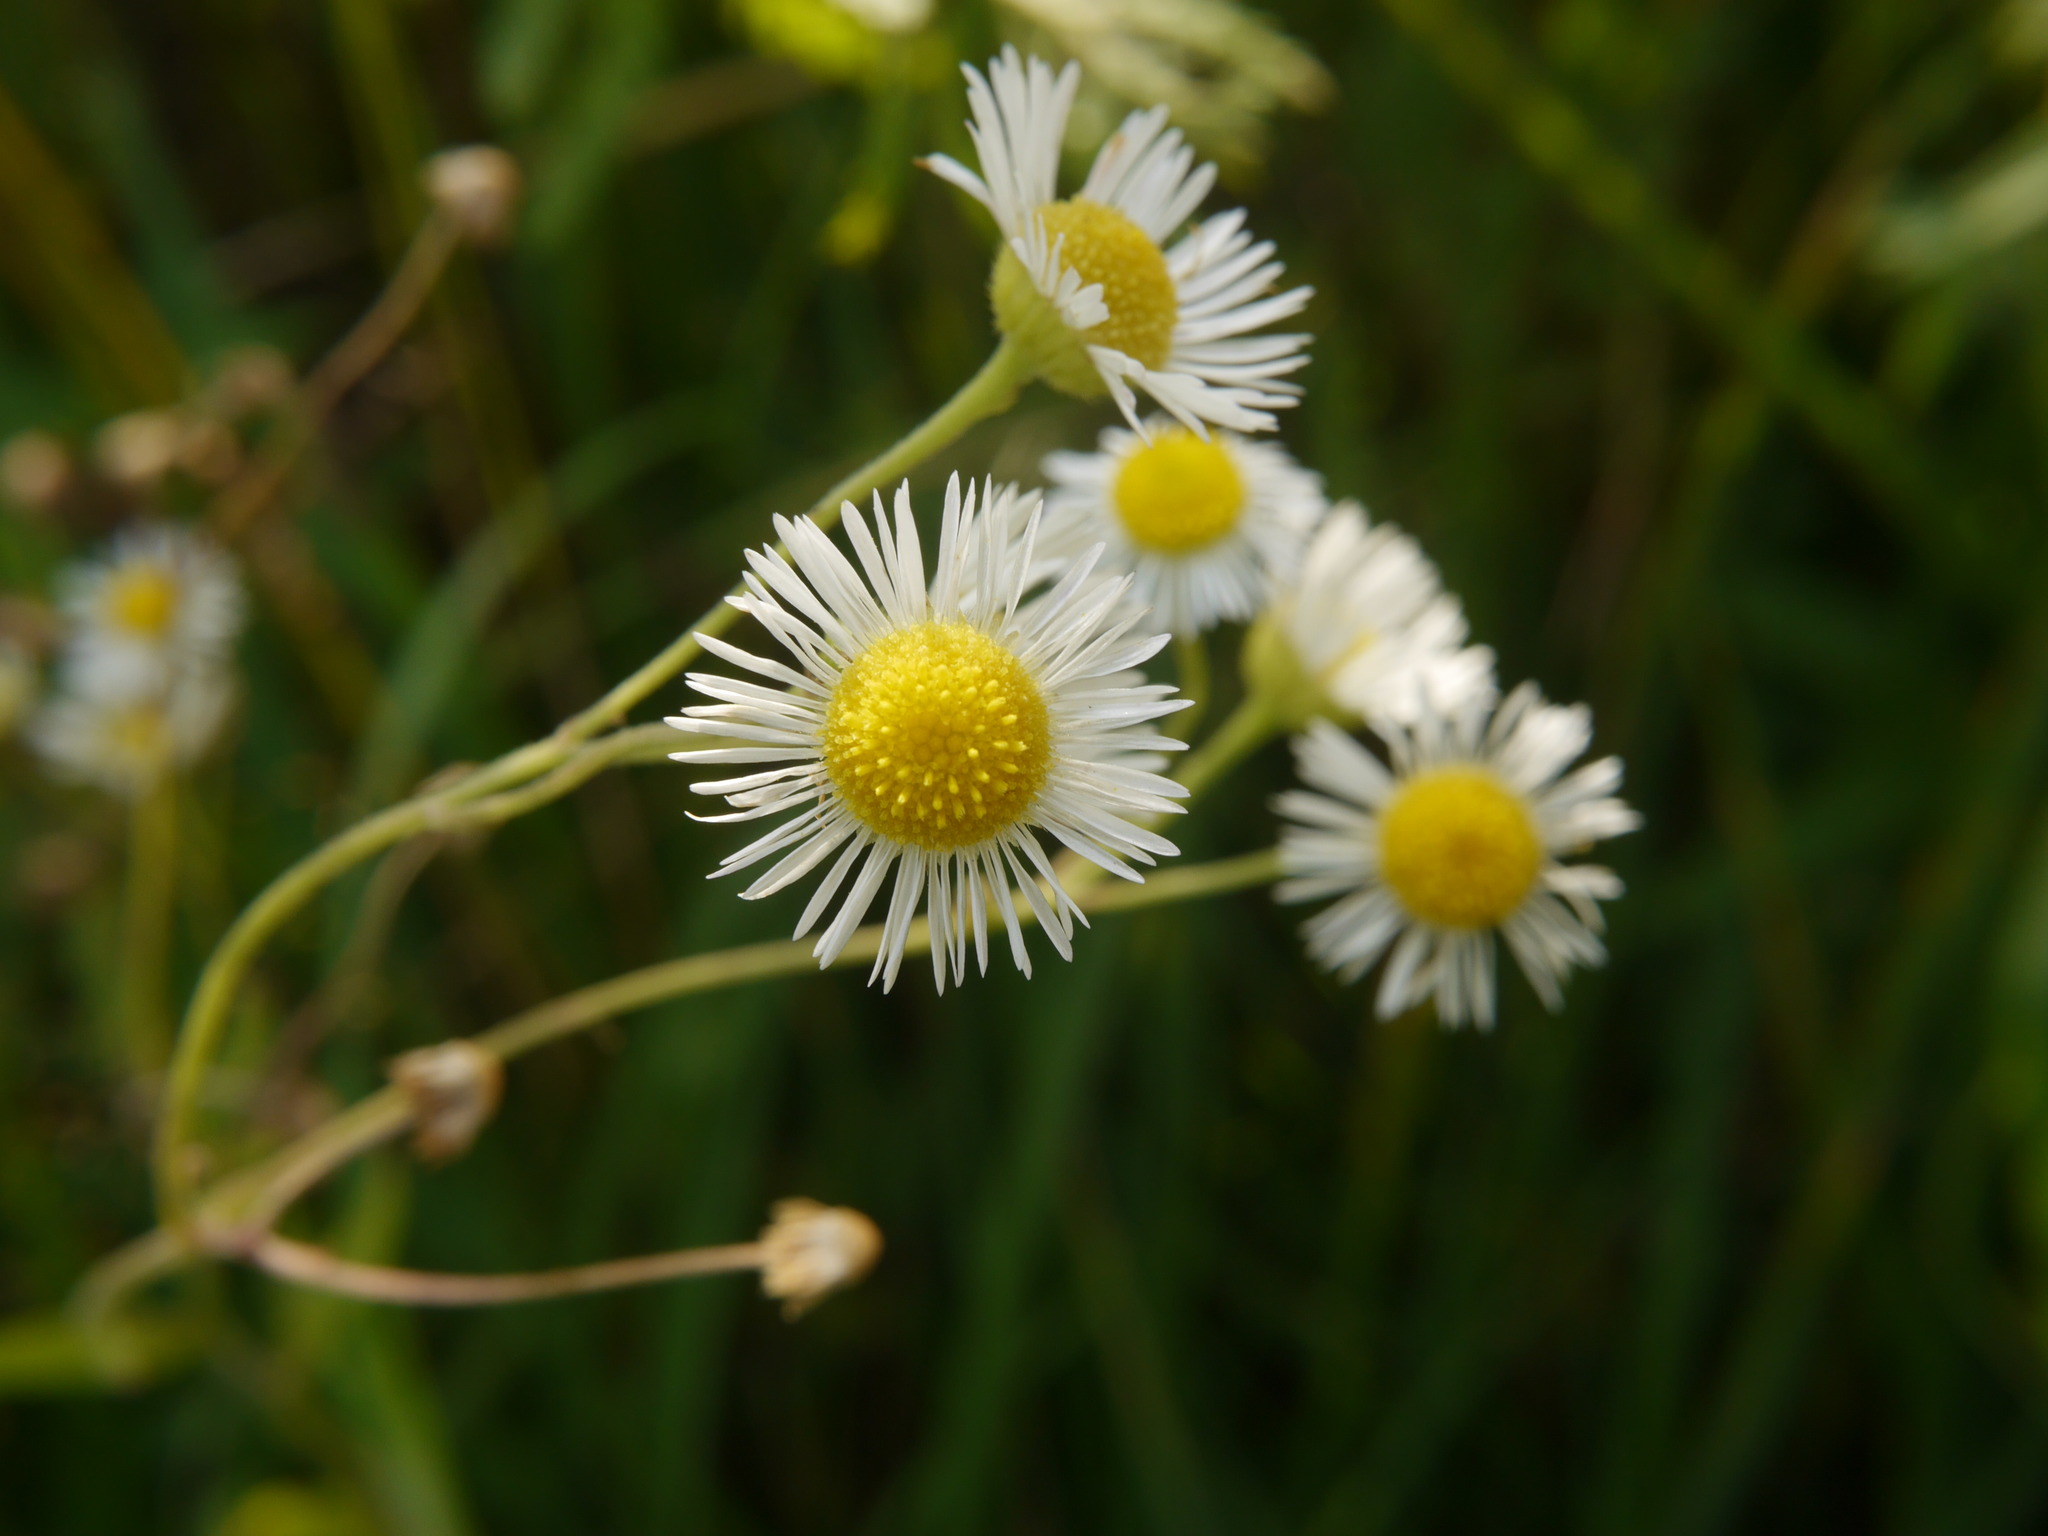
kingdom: Plantae
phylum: Tracheophyta
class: Magnoliopsida
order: Asterales
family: Asteraceae
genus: Erigeron
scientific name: Erigeron annuus
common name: Tall fleabane
